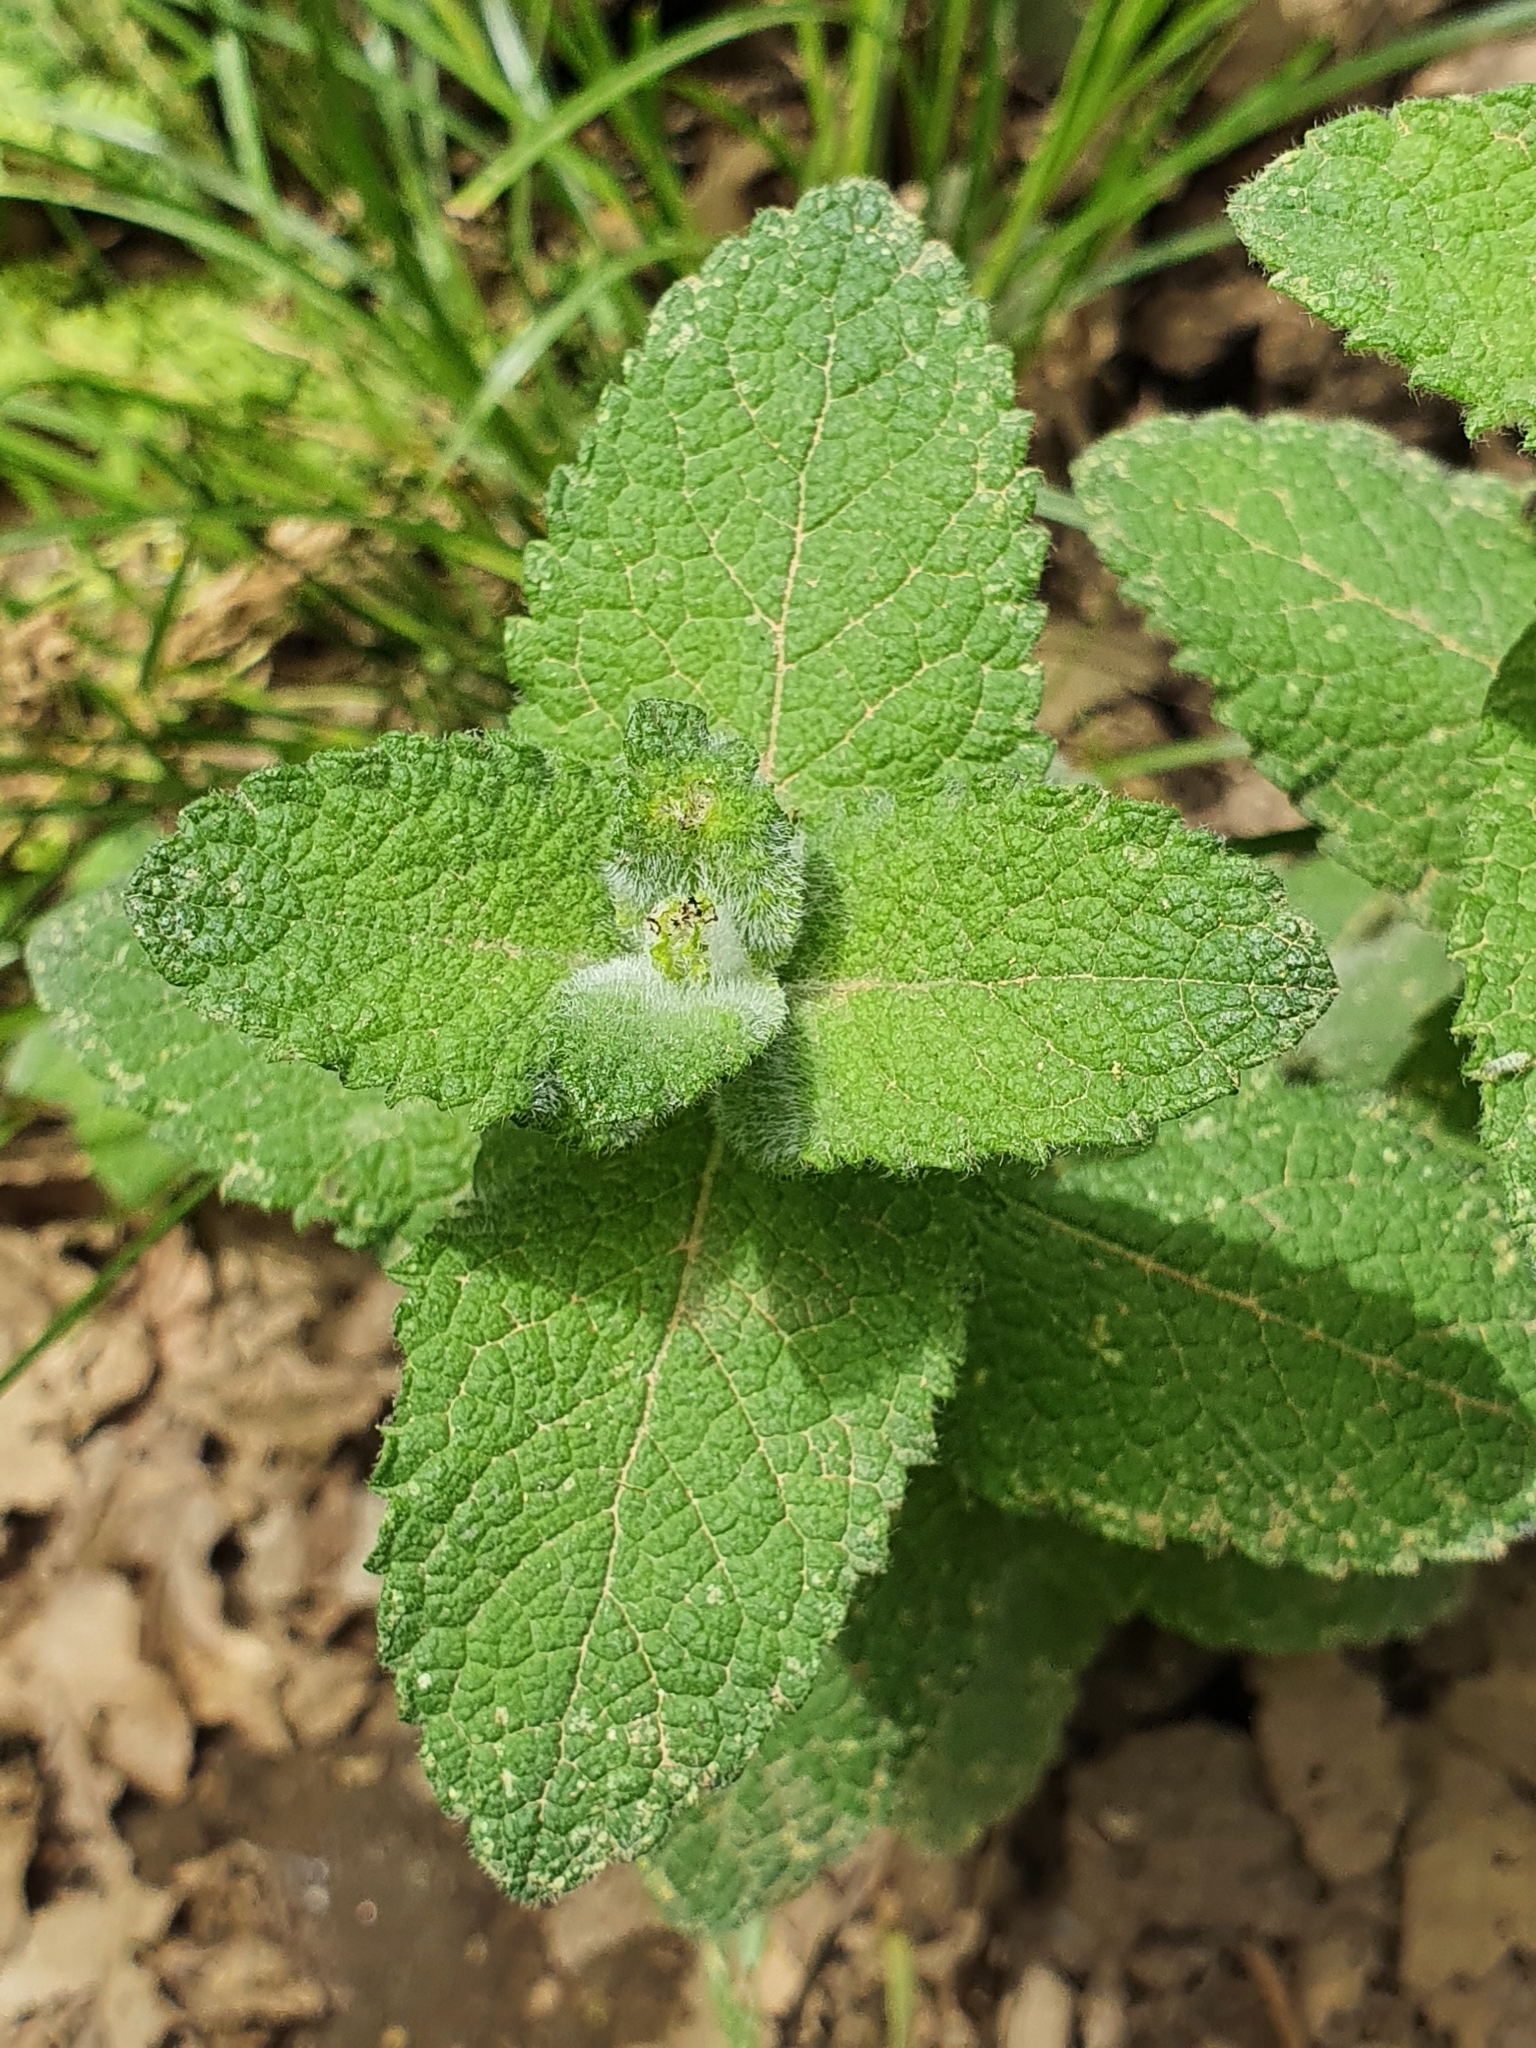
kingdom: Plantae
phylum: Tracheophyta
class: Magnoliopsida
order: Lamiales
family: Lamiaceae
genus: Mentha
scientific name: Mentha suaveolens
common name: Apple mint
